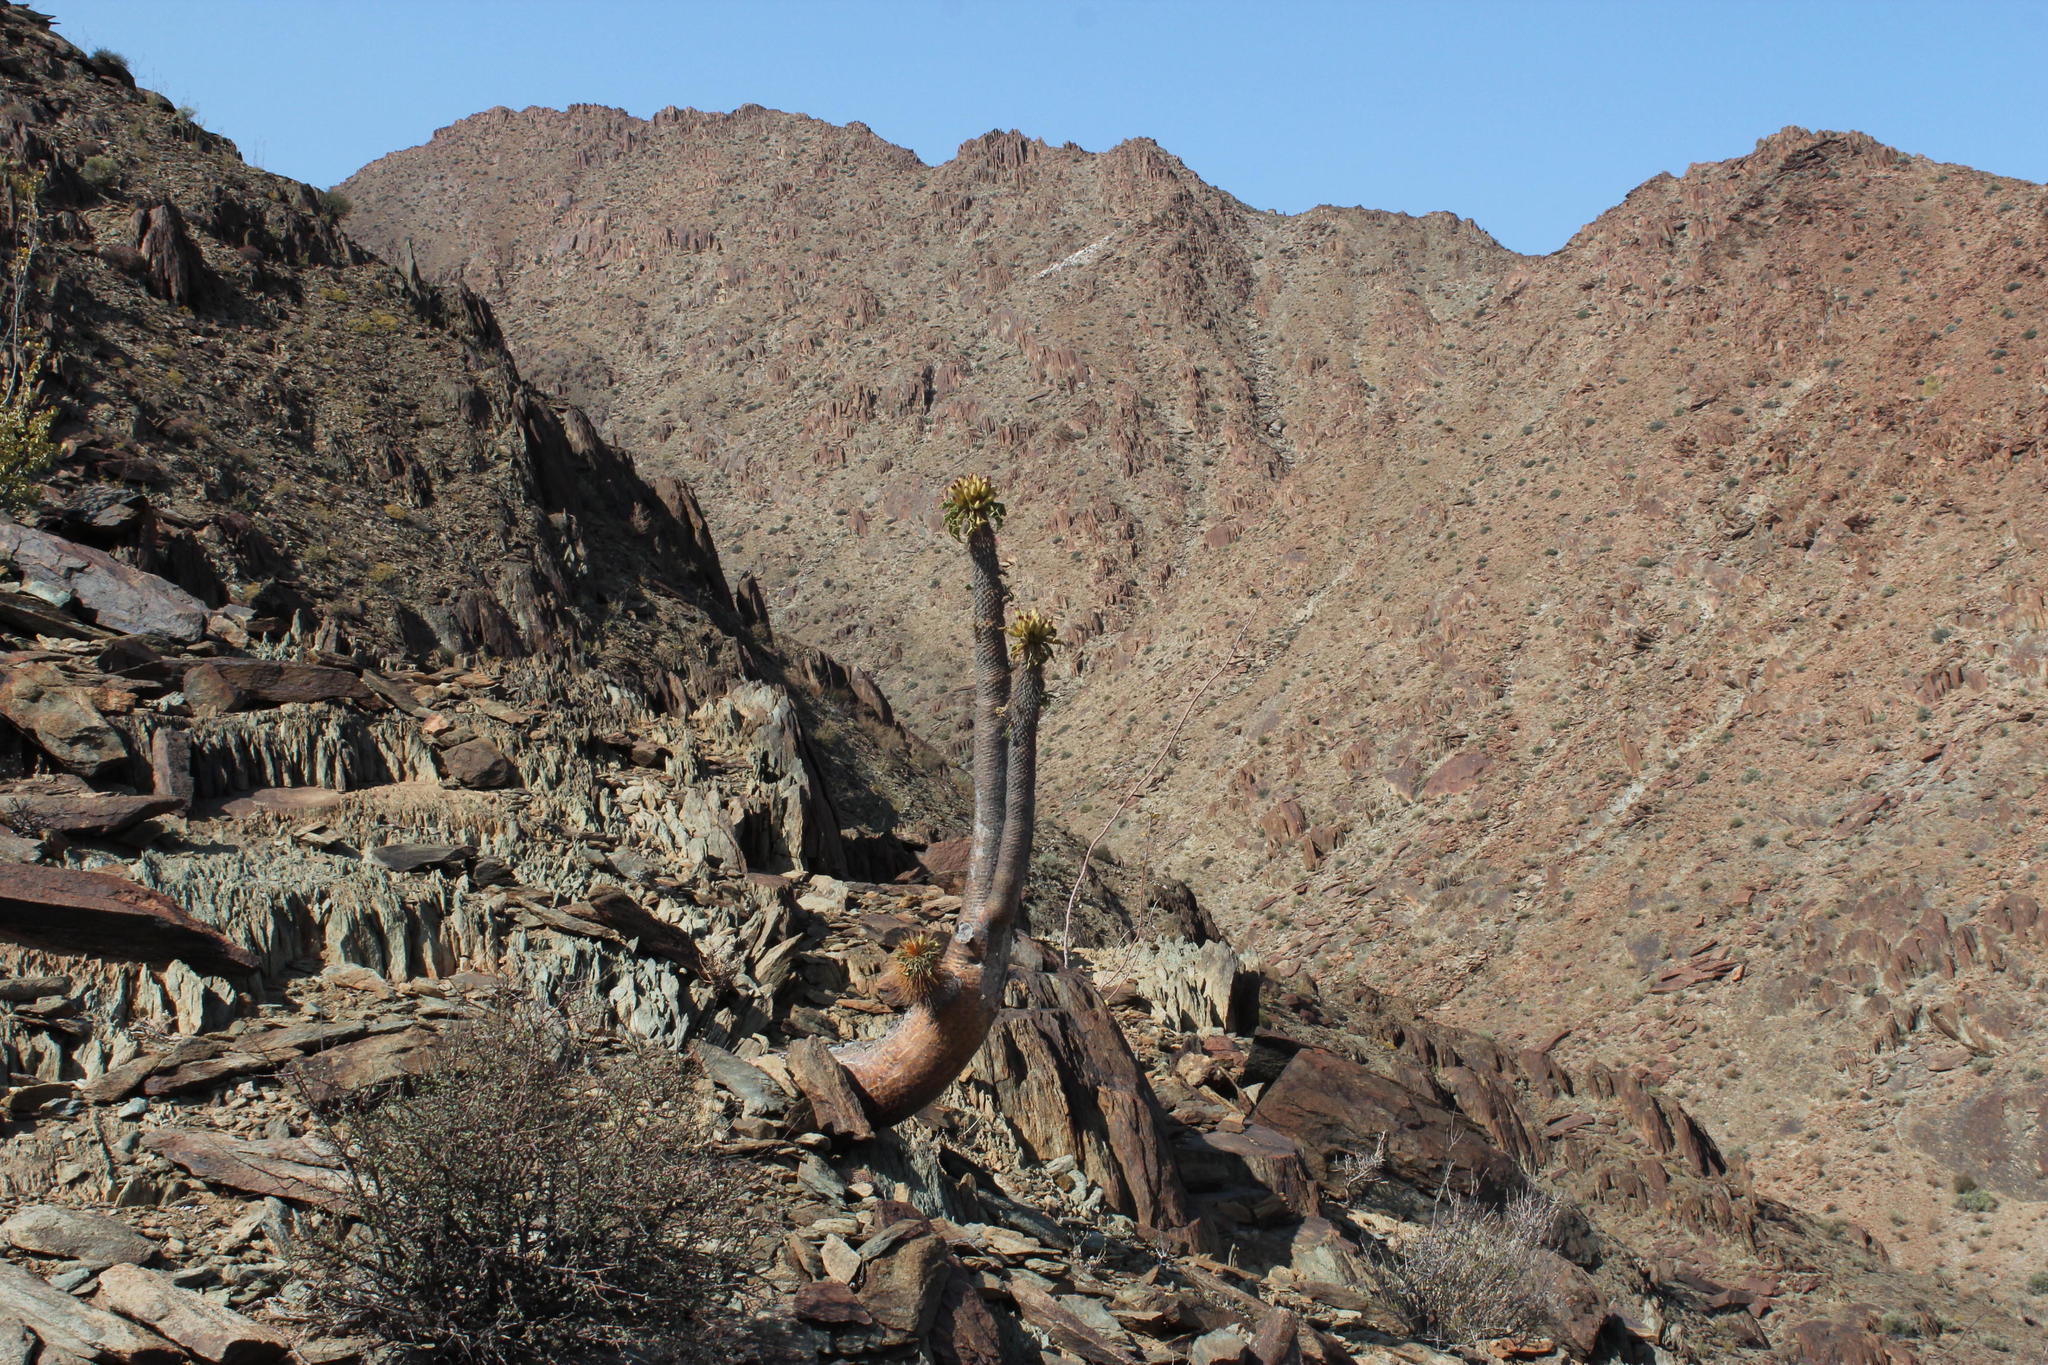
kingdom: Plantae
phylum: Tracheophyta
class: Magnoliopsida
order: Gentianales
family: Apocynaceae
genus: Pachypodium
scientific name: Pachypodium namaquanum
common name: Elephant's trunk
